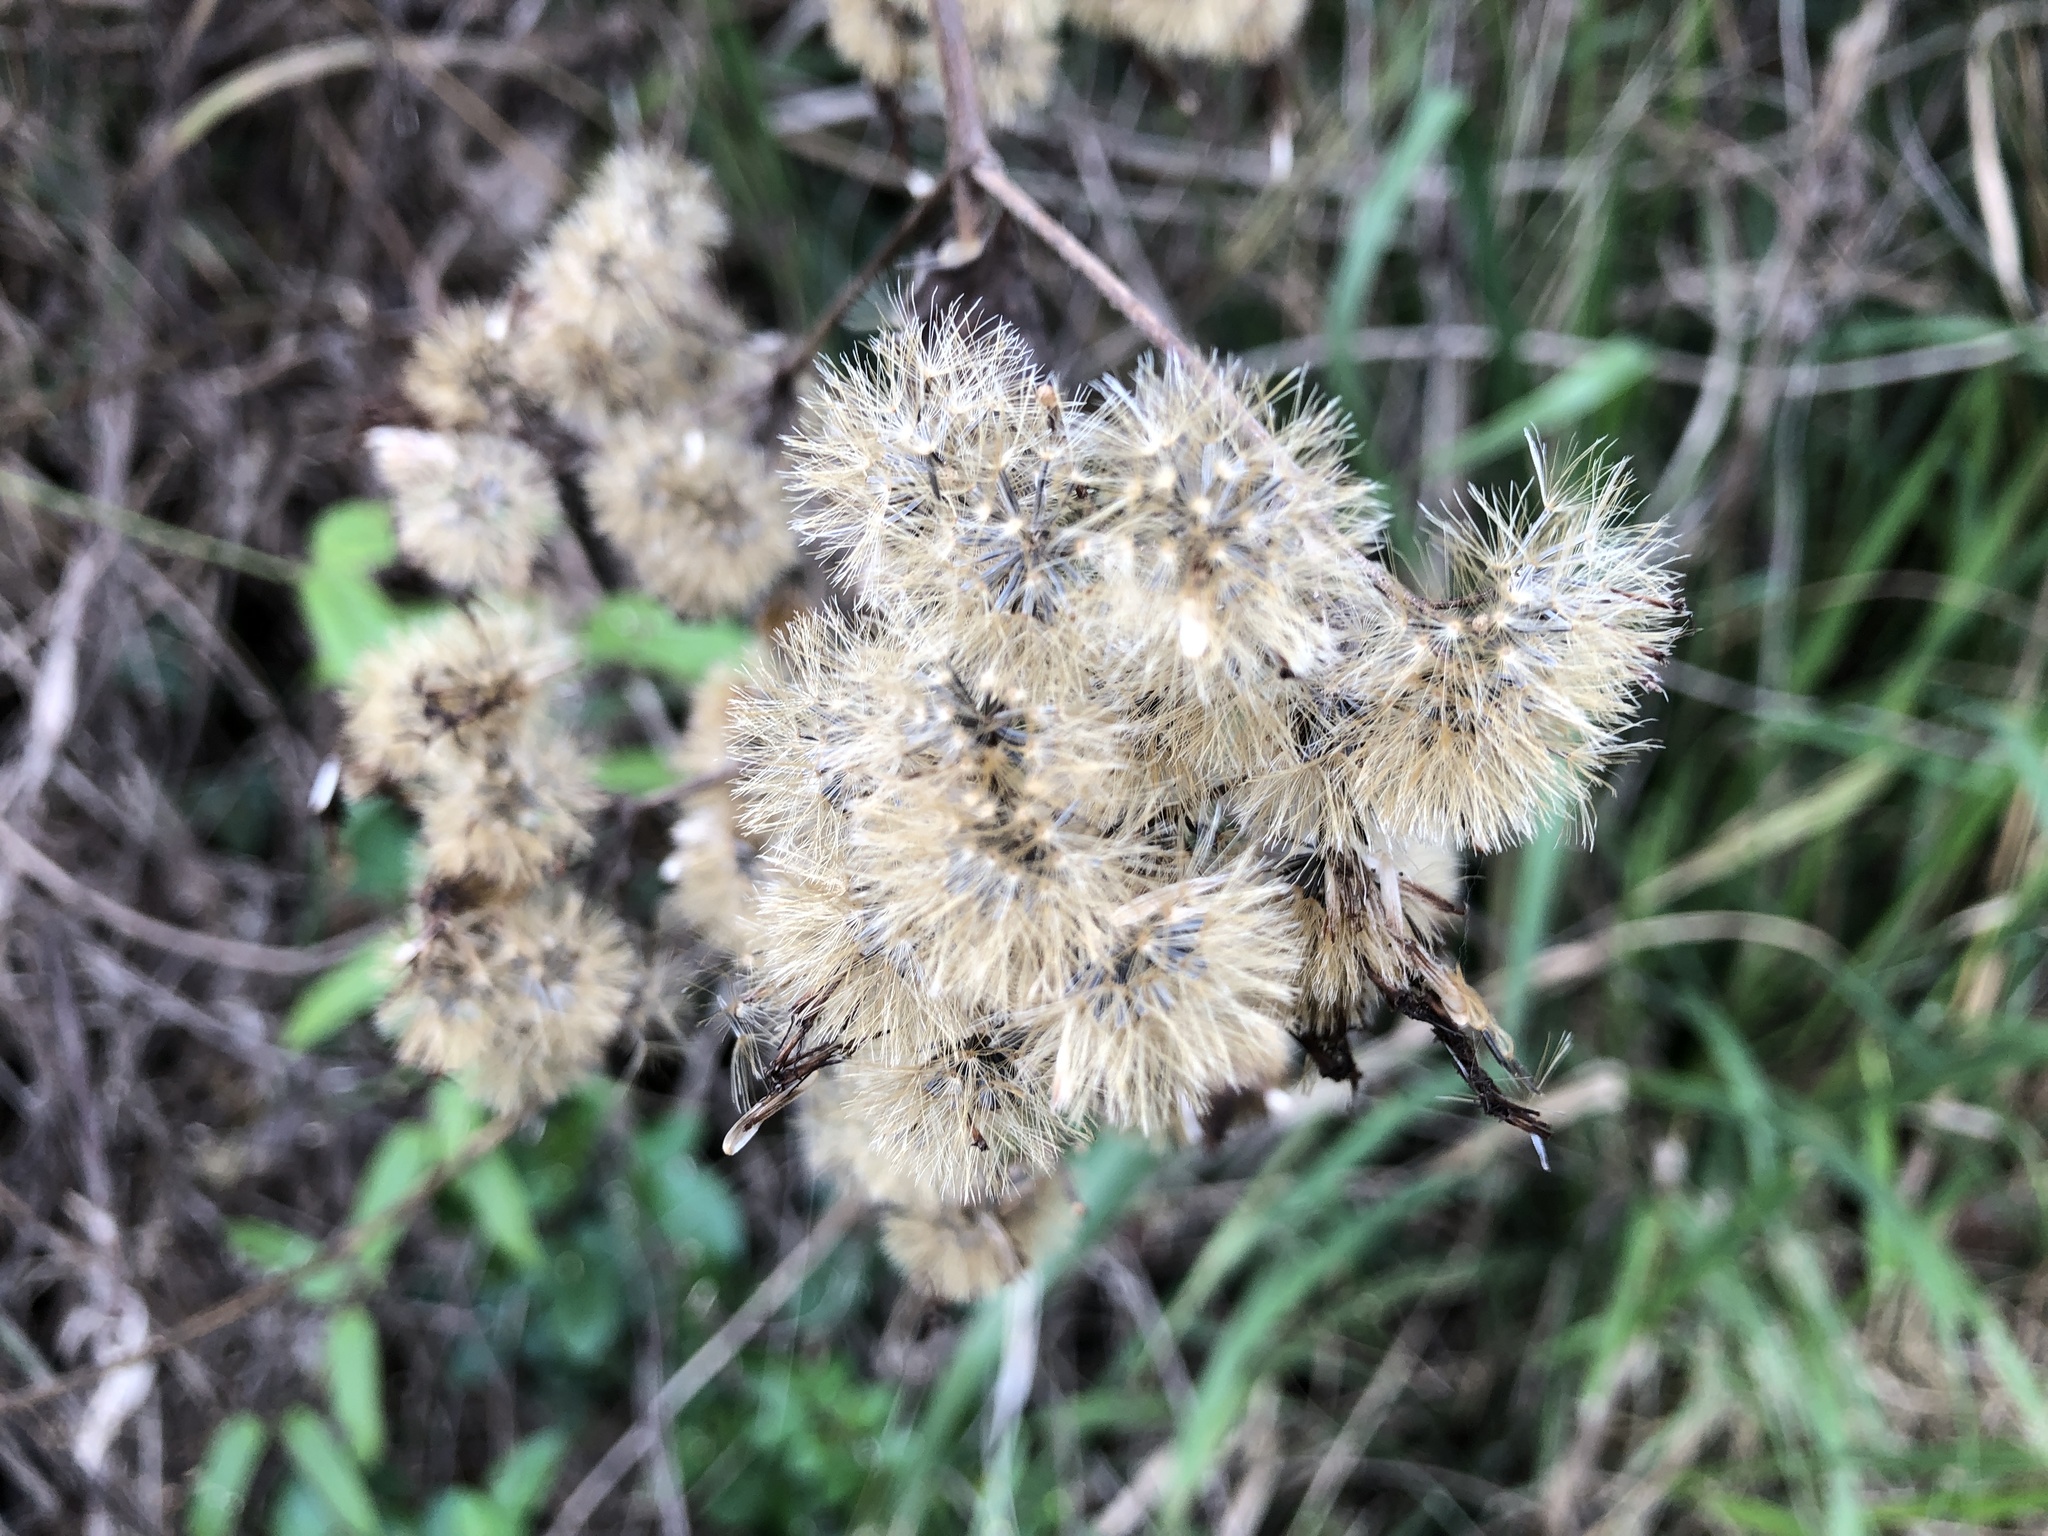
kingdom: Plantae
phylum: Tracheophyta
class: Magnoliopsida
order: Asterales
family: Asteraceae
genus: Chromolaena
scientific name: Chromolaena odorata
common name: Siamweed
